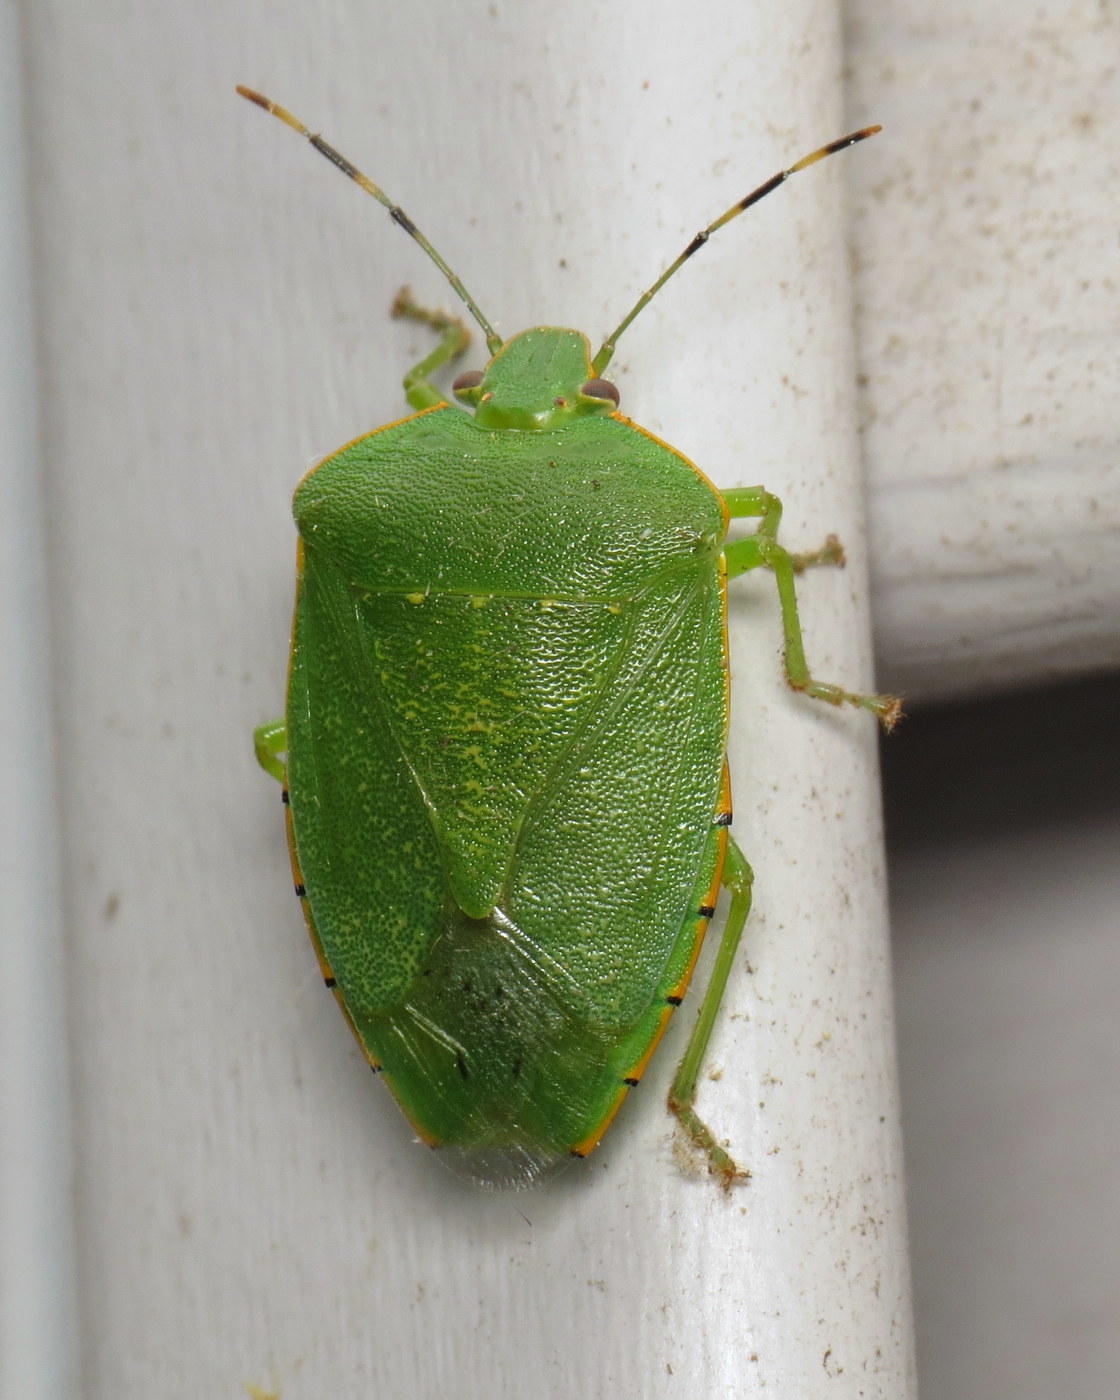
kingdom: Animalia
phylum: Arthropoda
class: Insecta
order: Hemiptera
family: Pentatomidae
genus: Chinavia
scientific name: Chinavia hilaris
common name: Green stink bug
